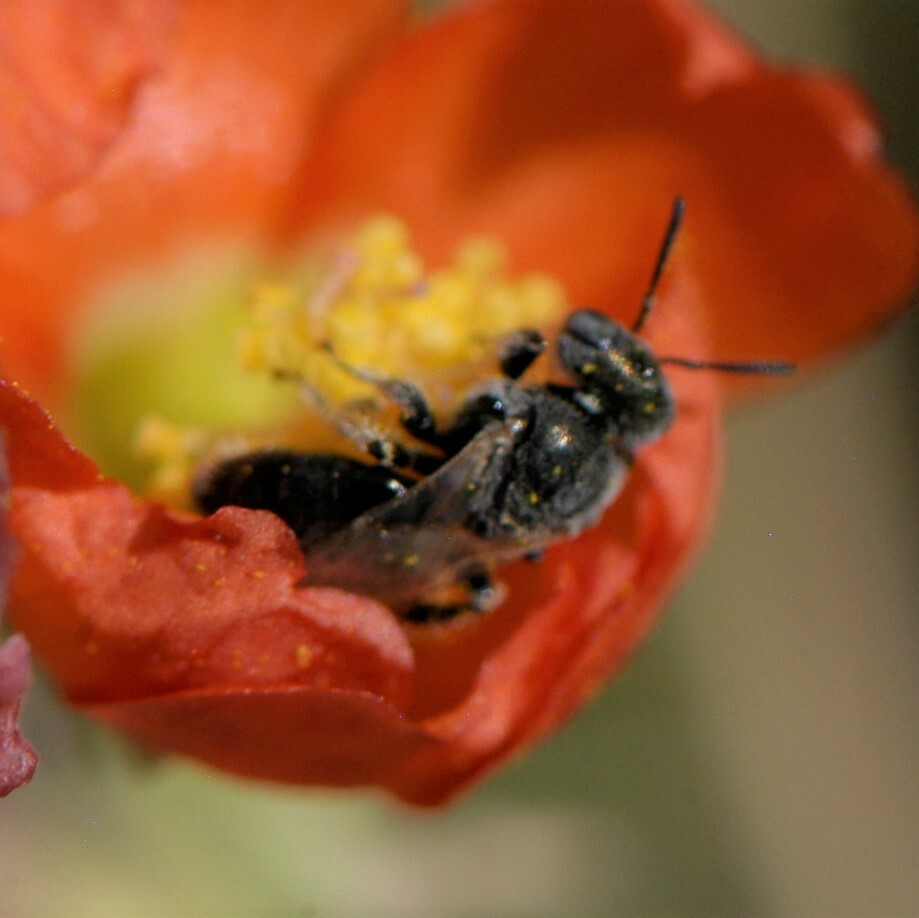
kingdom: Animalia
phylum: Arthropoda
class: Insecta
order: Hymenoptera
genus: Macroteropsis
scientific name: Macroteropsis
